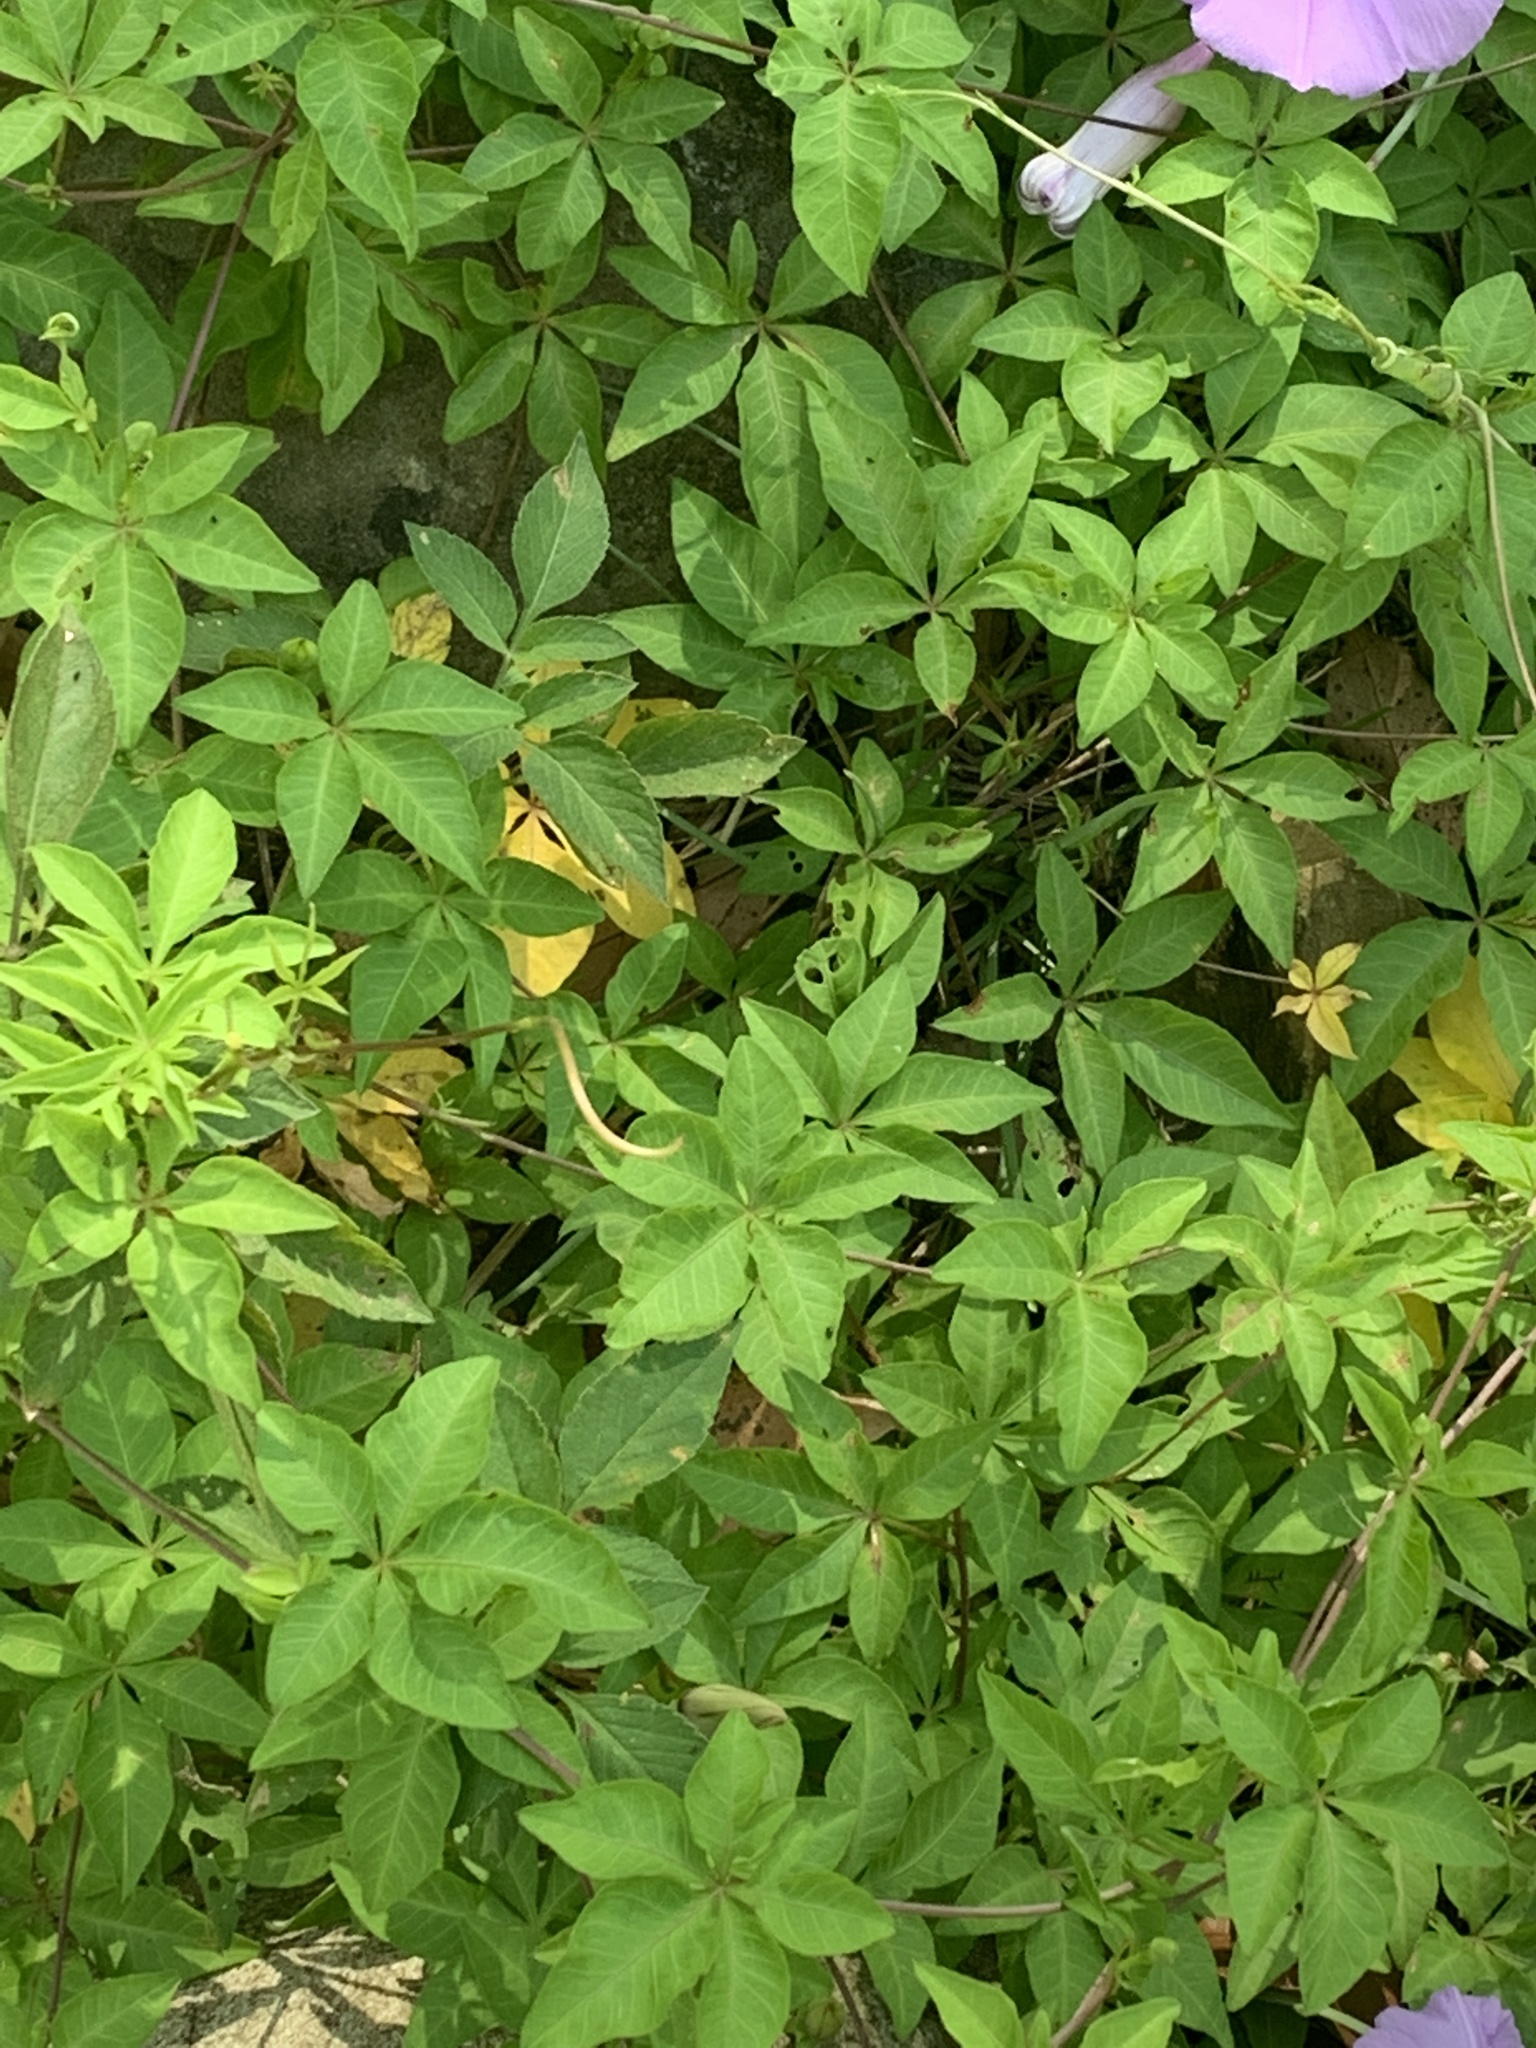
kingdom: Plantae
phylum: Tracheophyta
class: Magnoliopsida
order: Solanales
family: Convolvulaceae
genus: Ipomoea
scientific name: Ipomoea cairica
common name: Mile a minute vine
